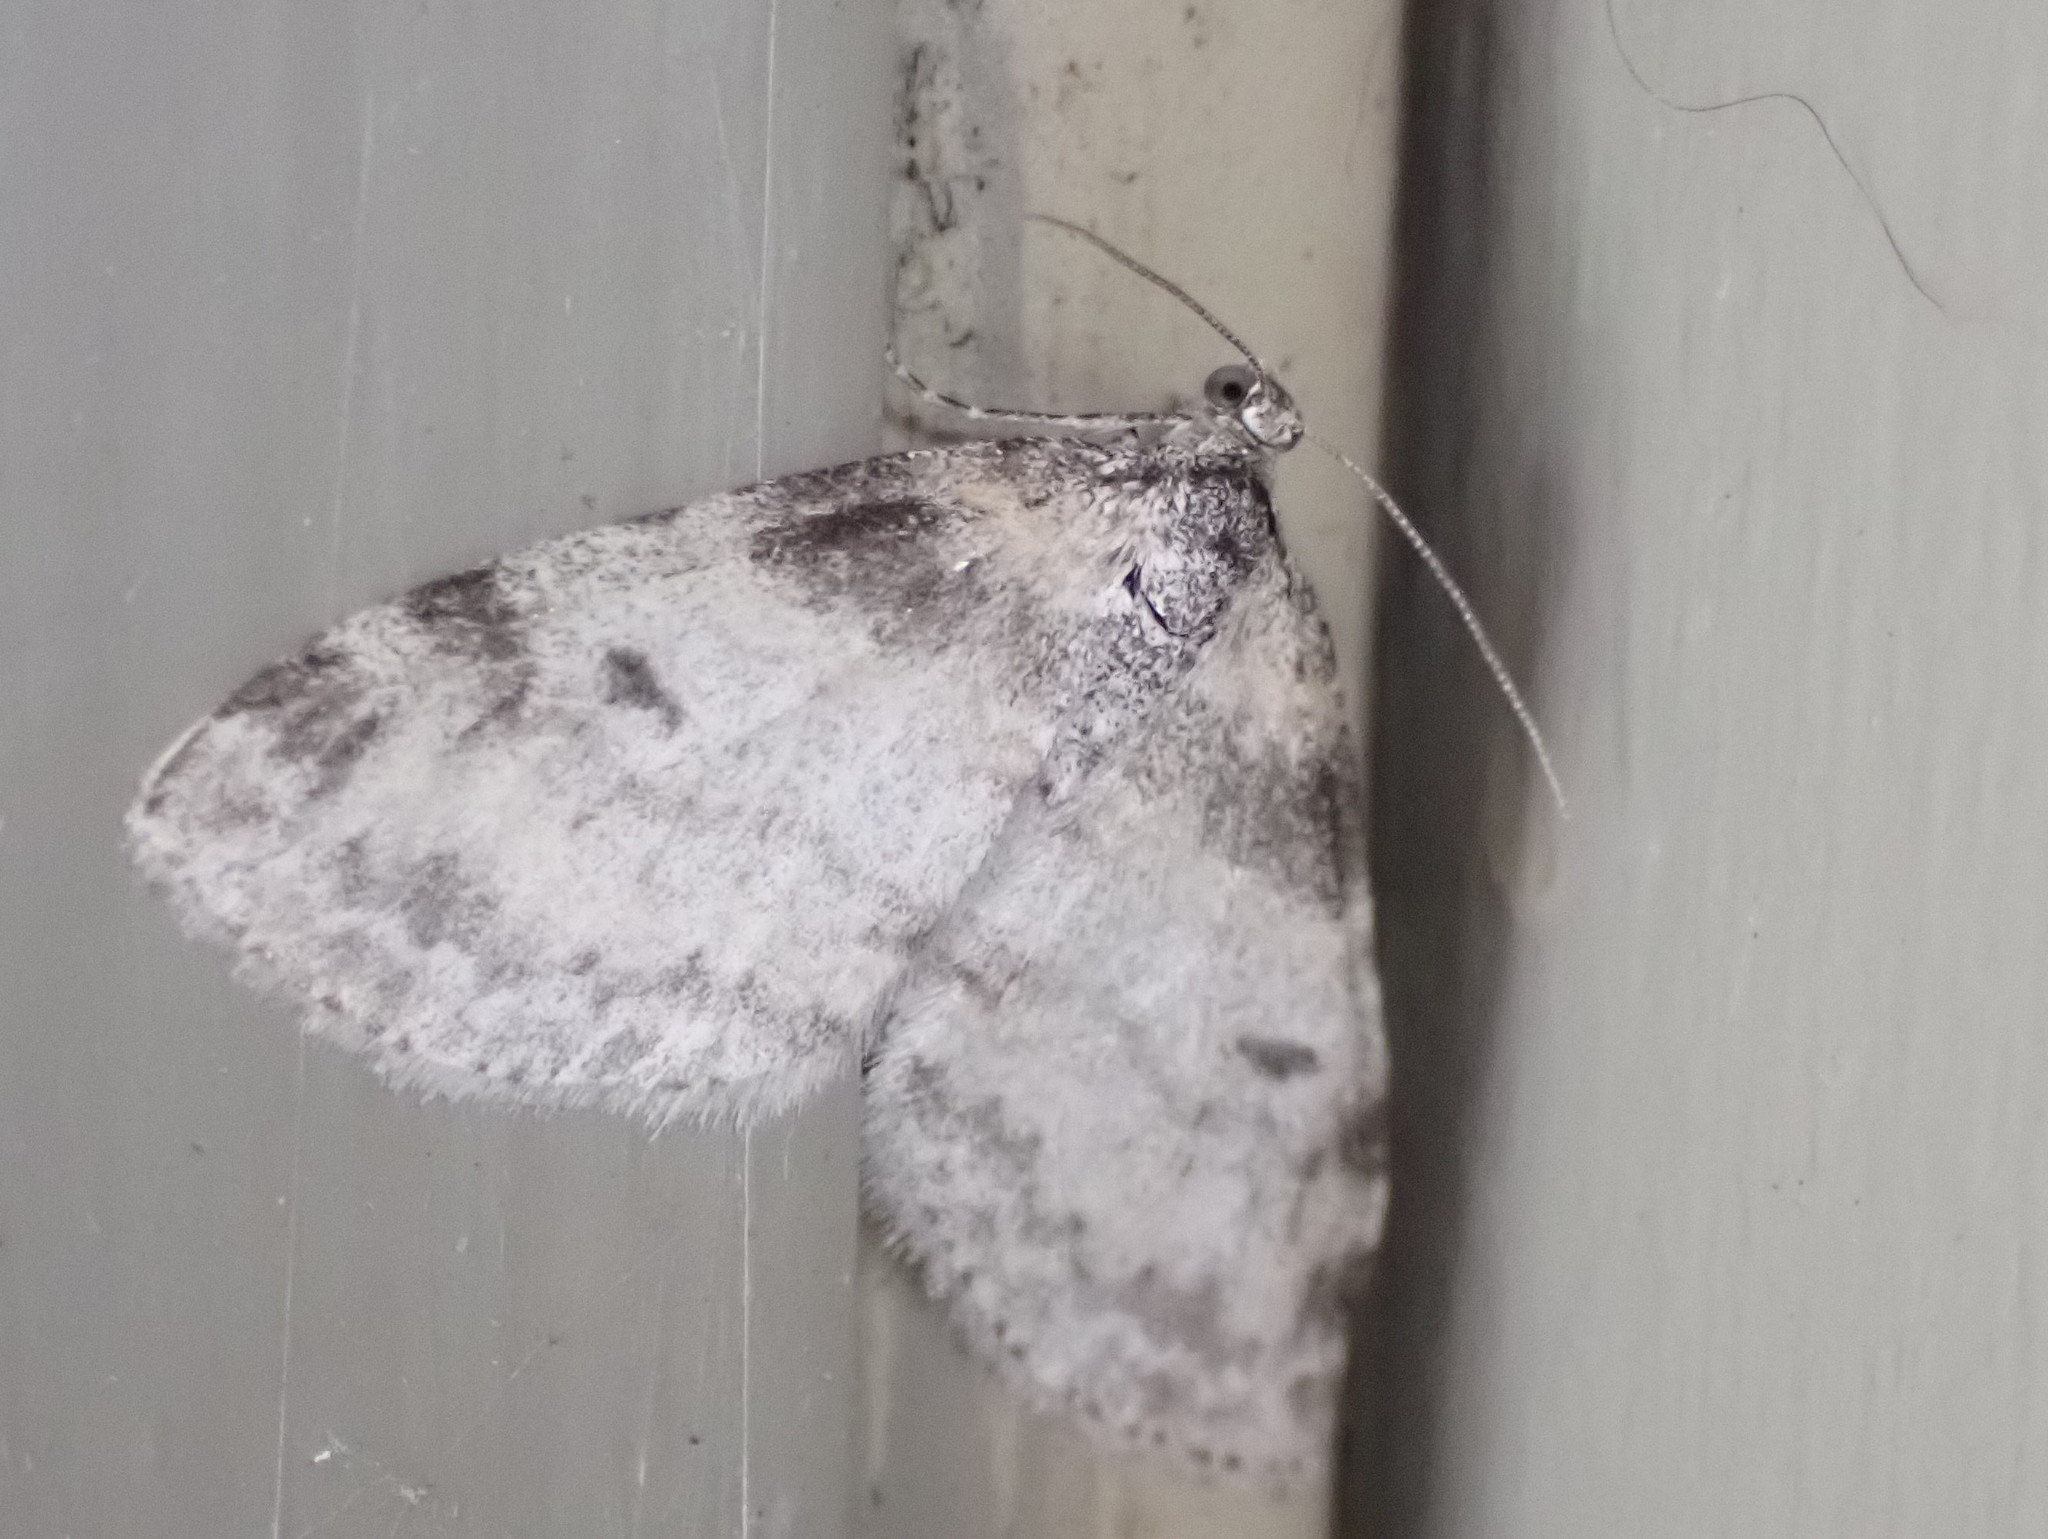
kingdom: Animalia
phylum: Arthropoda
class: Insecta
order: Lepidoptera
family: Geometridae
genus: Lobophora
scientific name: Lobophora nivigerata
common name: Powdered bigwing
